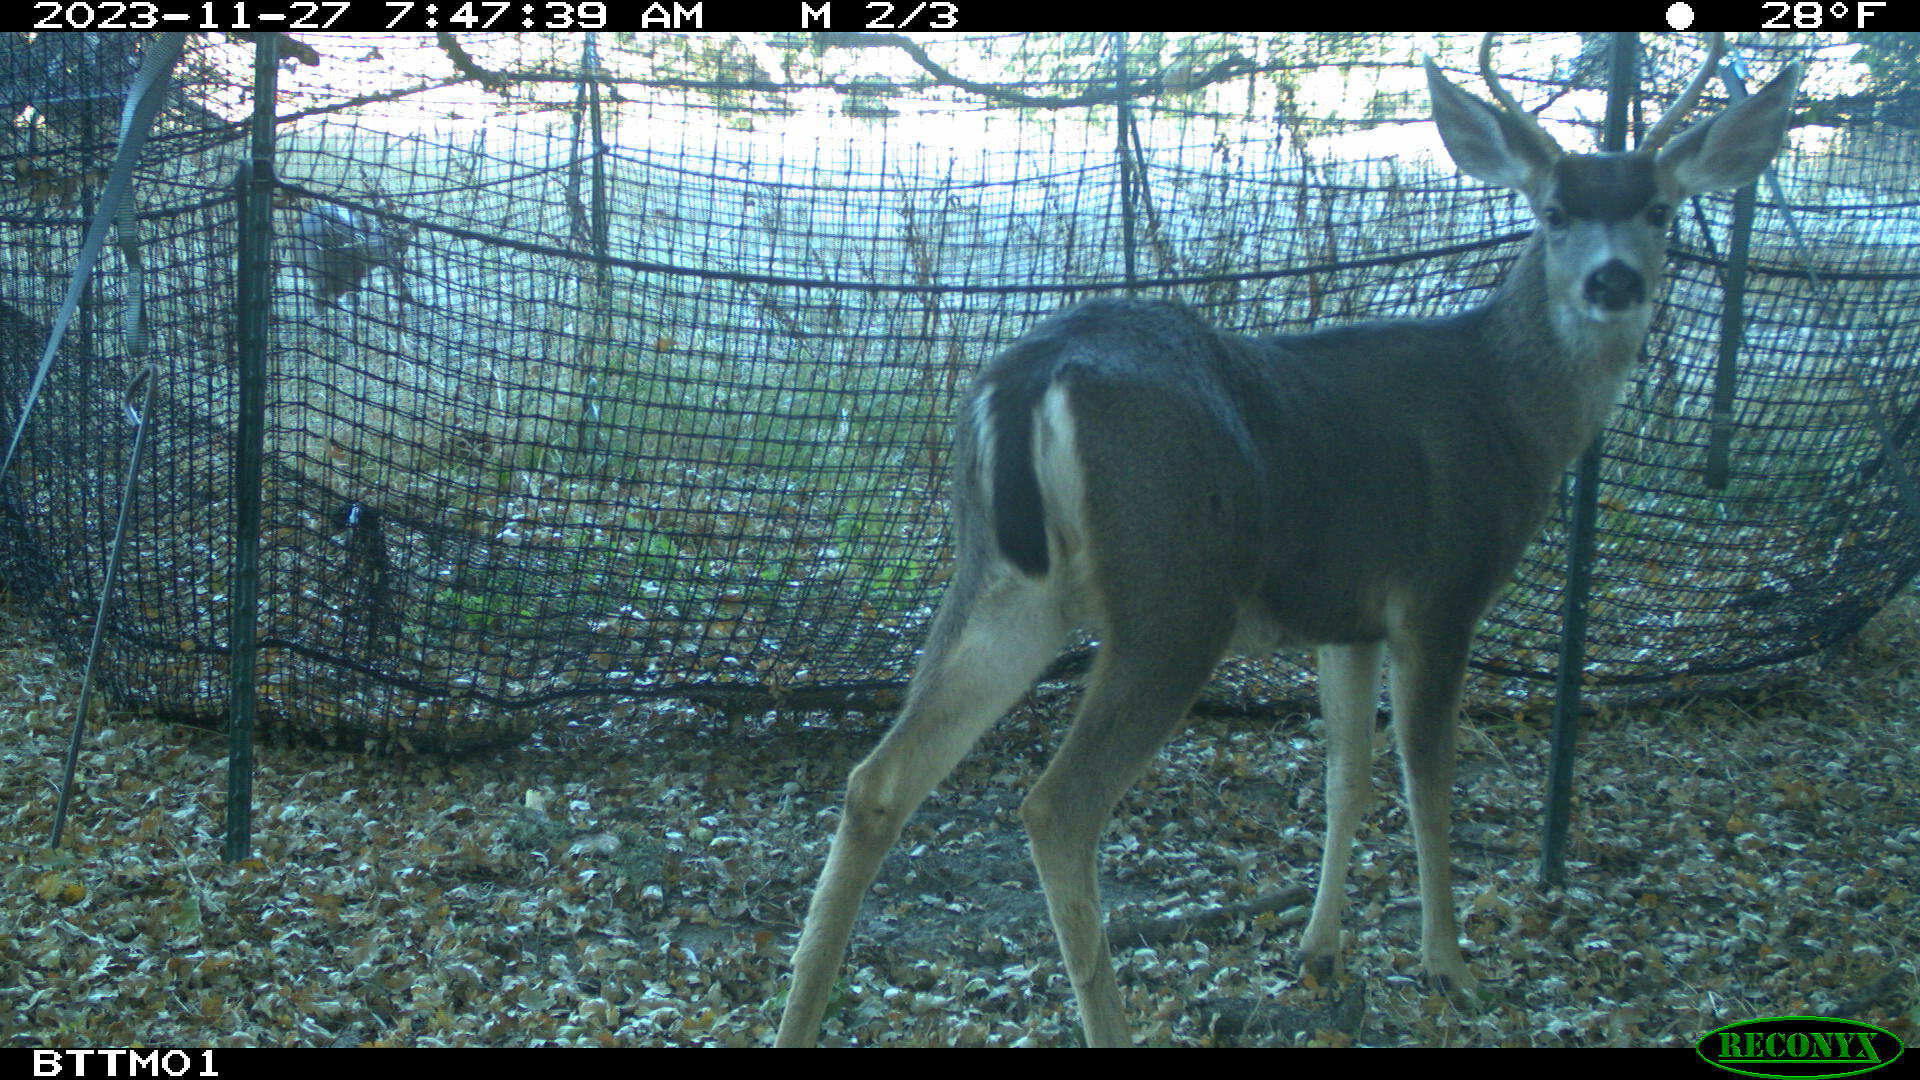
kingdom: Animalia
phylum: Chordata
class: Mammalia
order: Artiodactyla
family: Cervidae
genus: Odocoileus
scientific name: Odocoileus hemionus
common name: Mule deer
